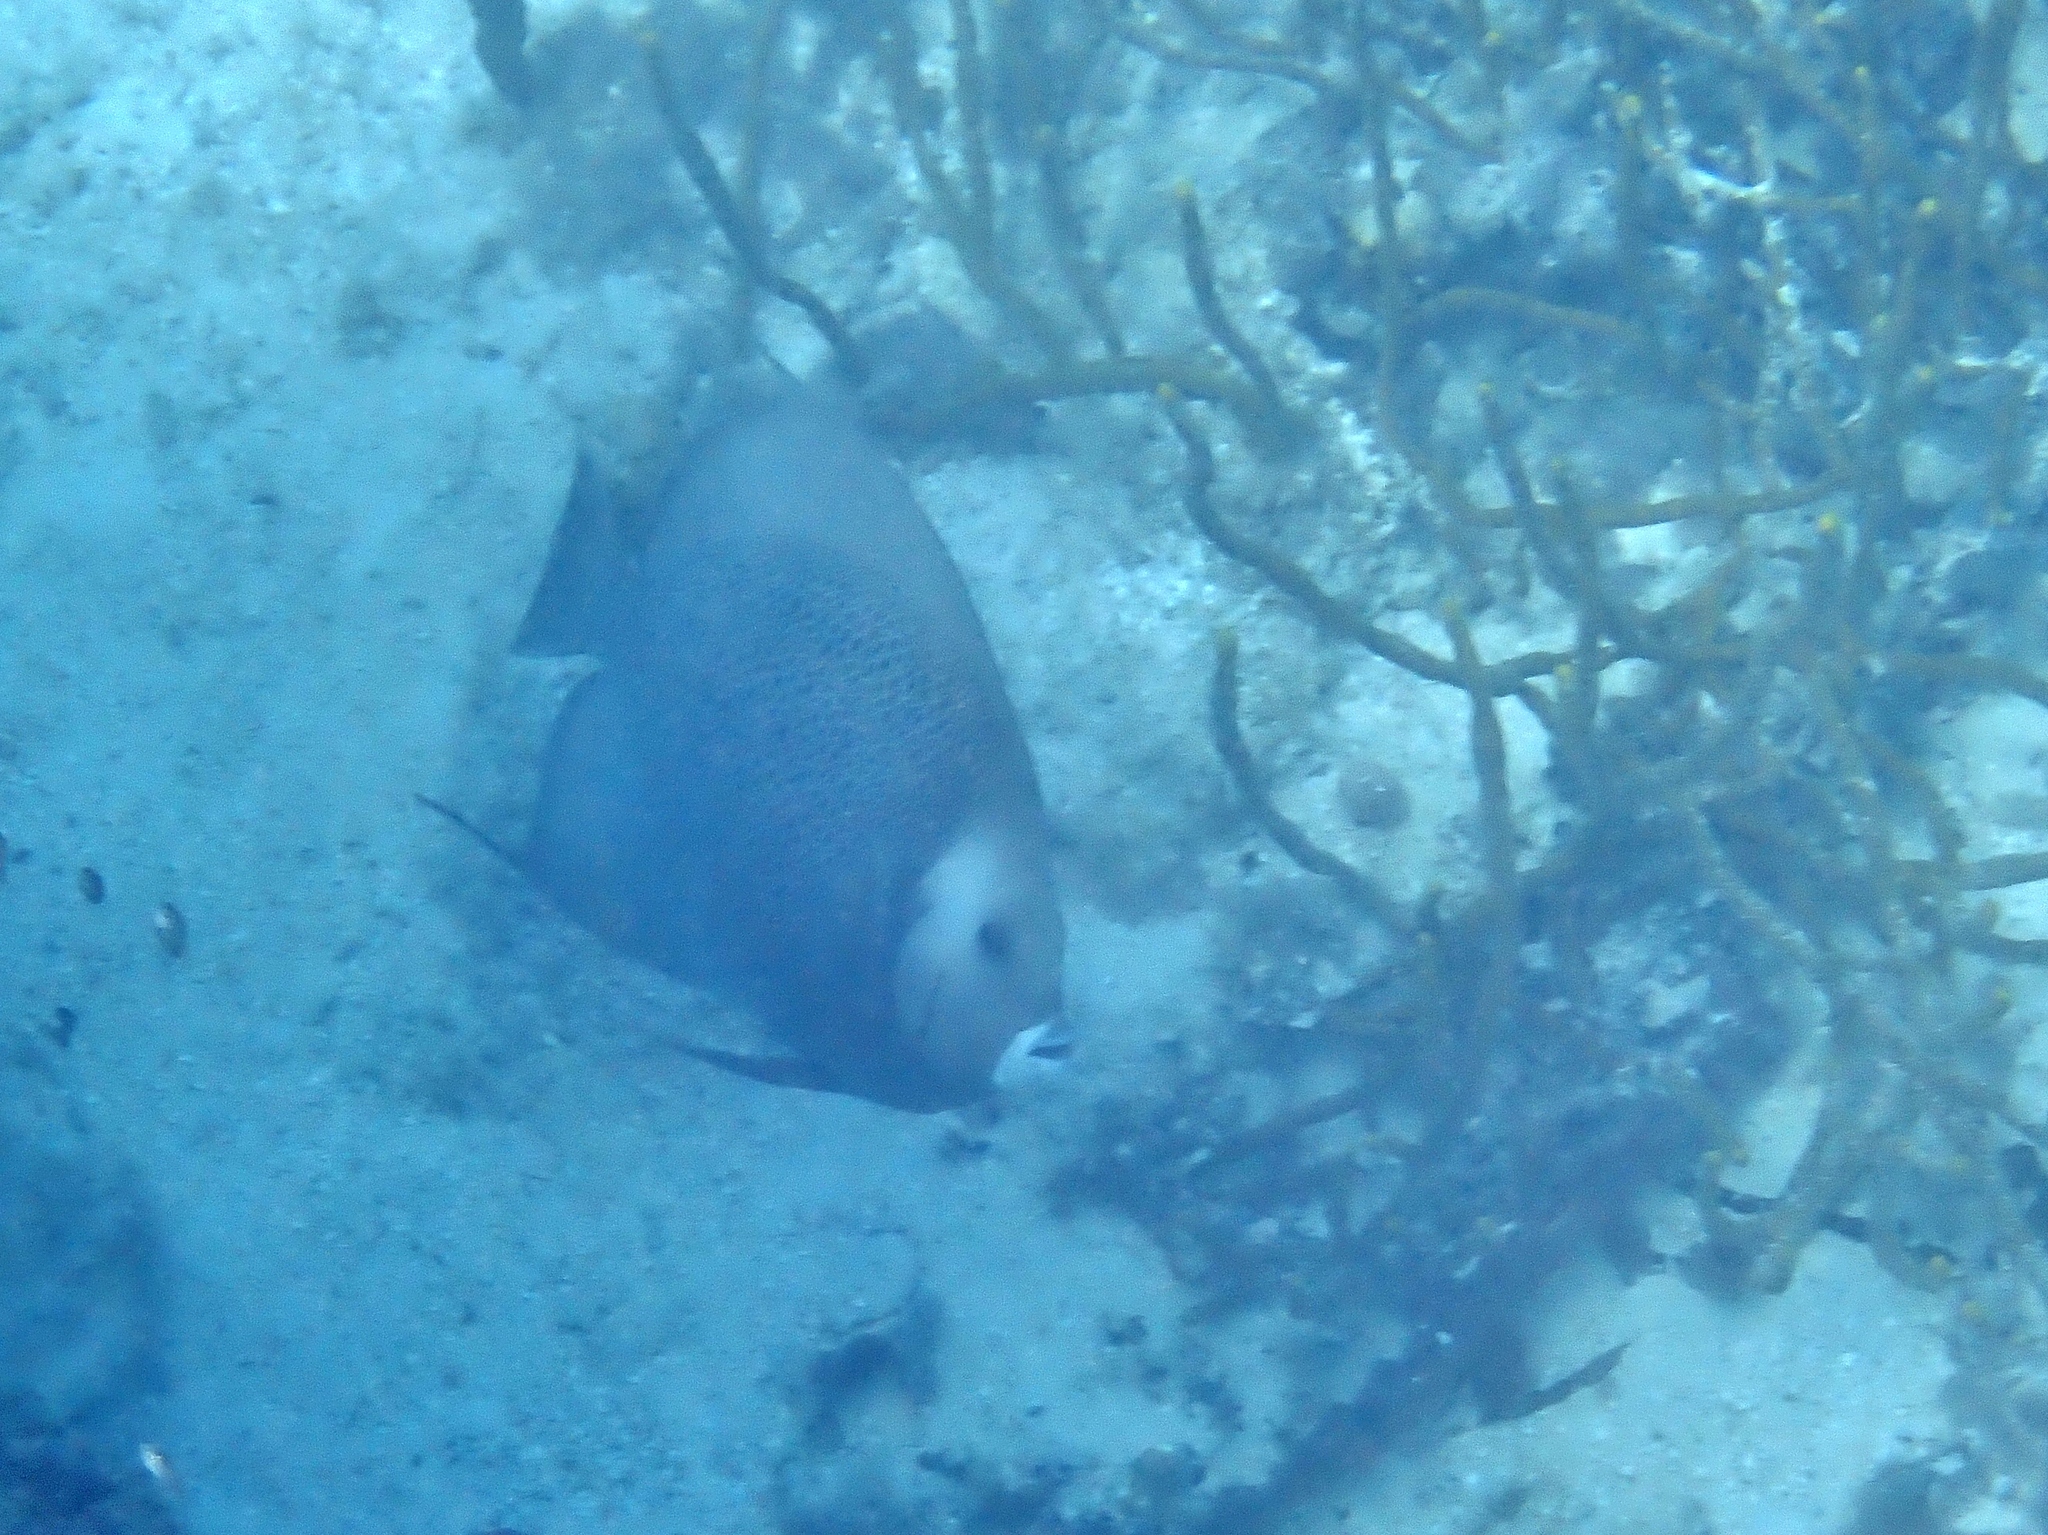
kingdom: Animalia
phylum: Chordata
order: Perciformes
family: Pomacanthidae
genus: Pomacanthus
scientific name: Pomacanthus arcuatus
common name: Gray angelfish
